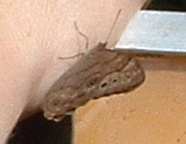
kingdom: Animalia
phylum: Arthropoda
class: Insecta
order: Lepidoptera
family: Nymphalidae
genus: Lethe
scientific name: Lethe anthedon
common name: Northern pearly-eye
